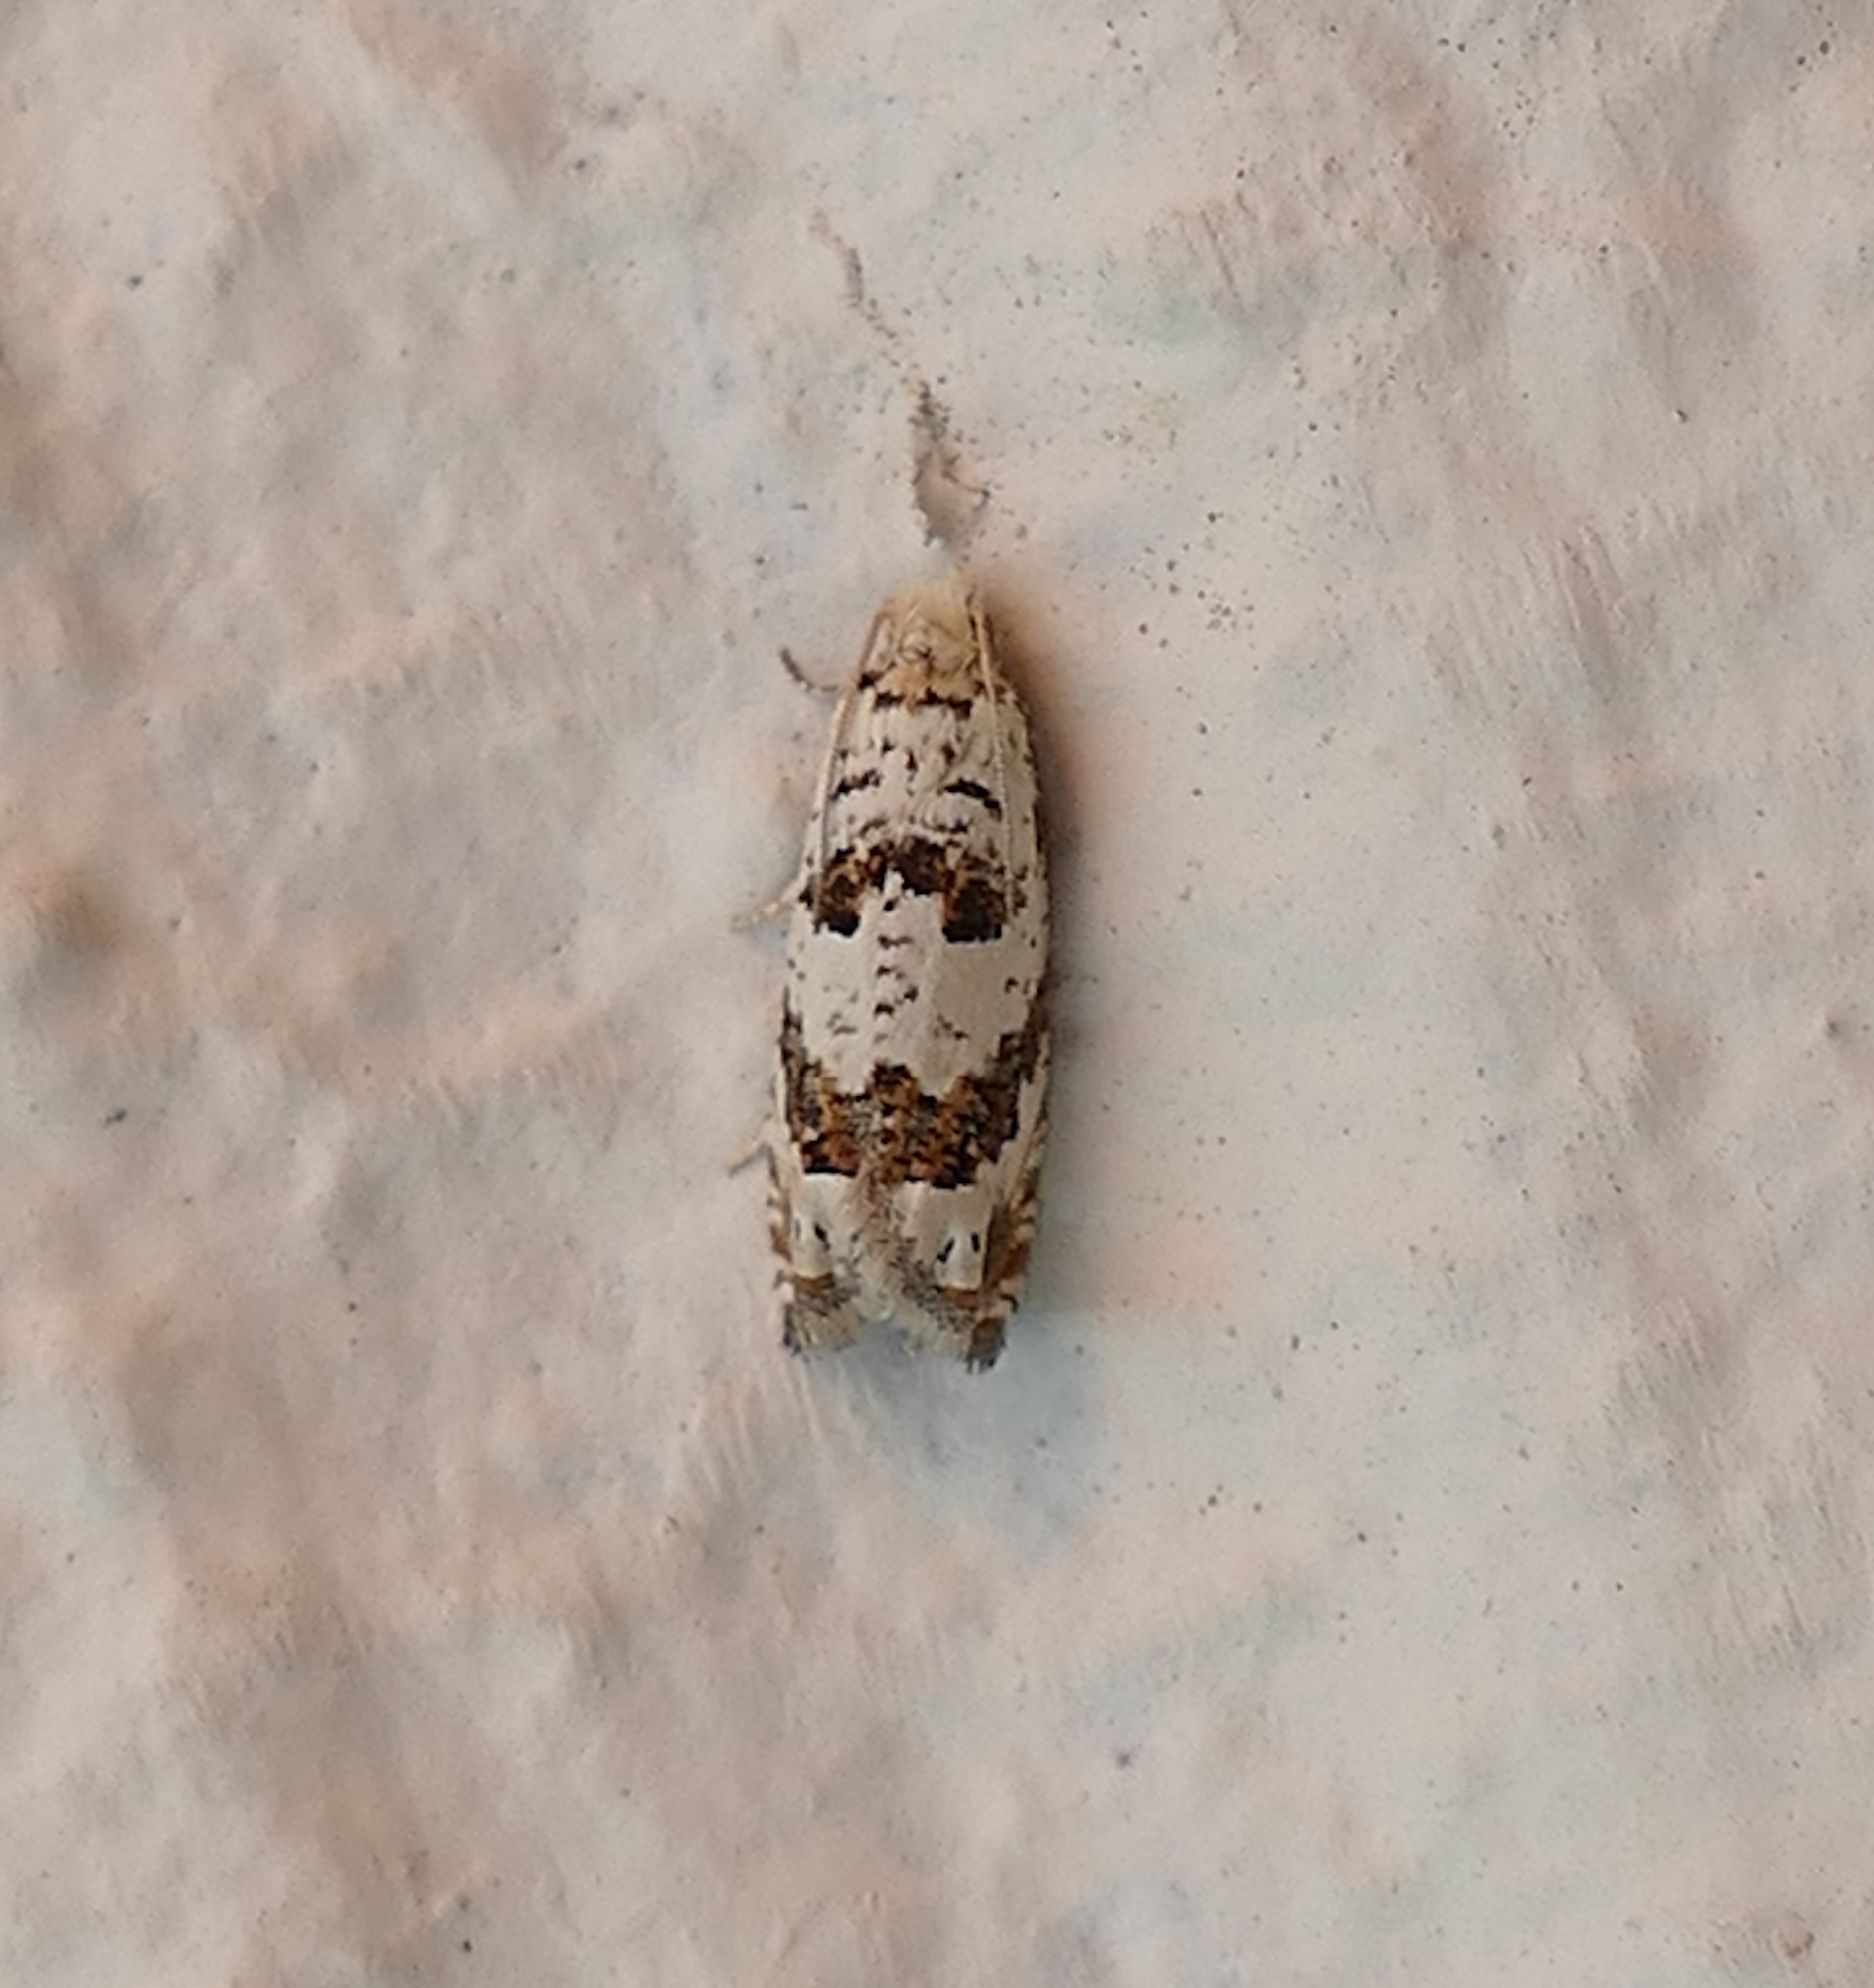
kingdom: Animalia
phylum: Arthropoda
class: Insecta
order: Lepidoptera
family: Tortricidae
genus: Pelochrista
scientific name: Pelochrista matutina
